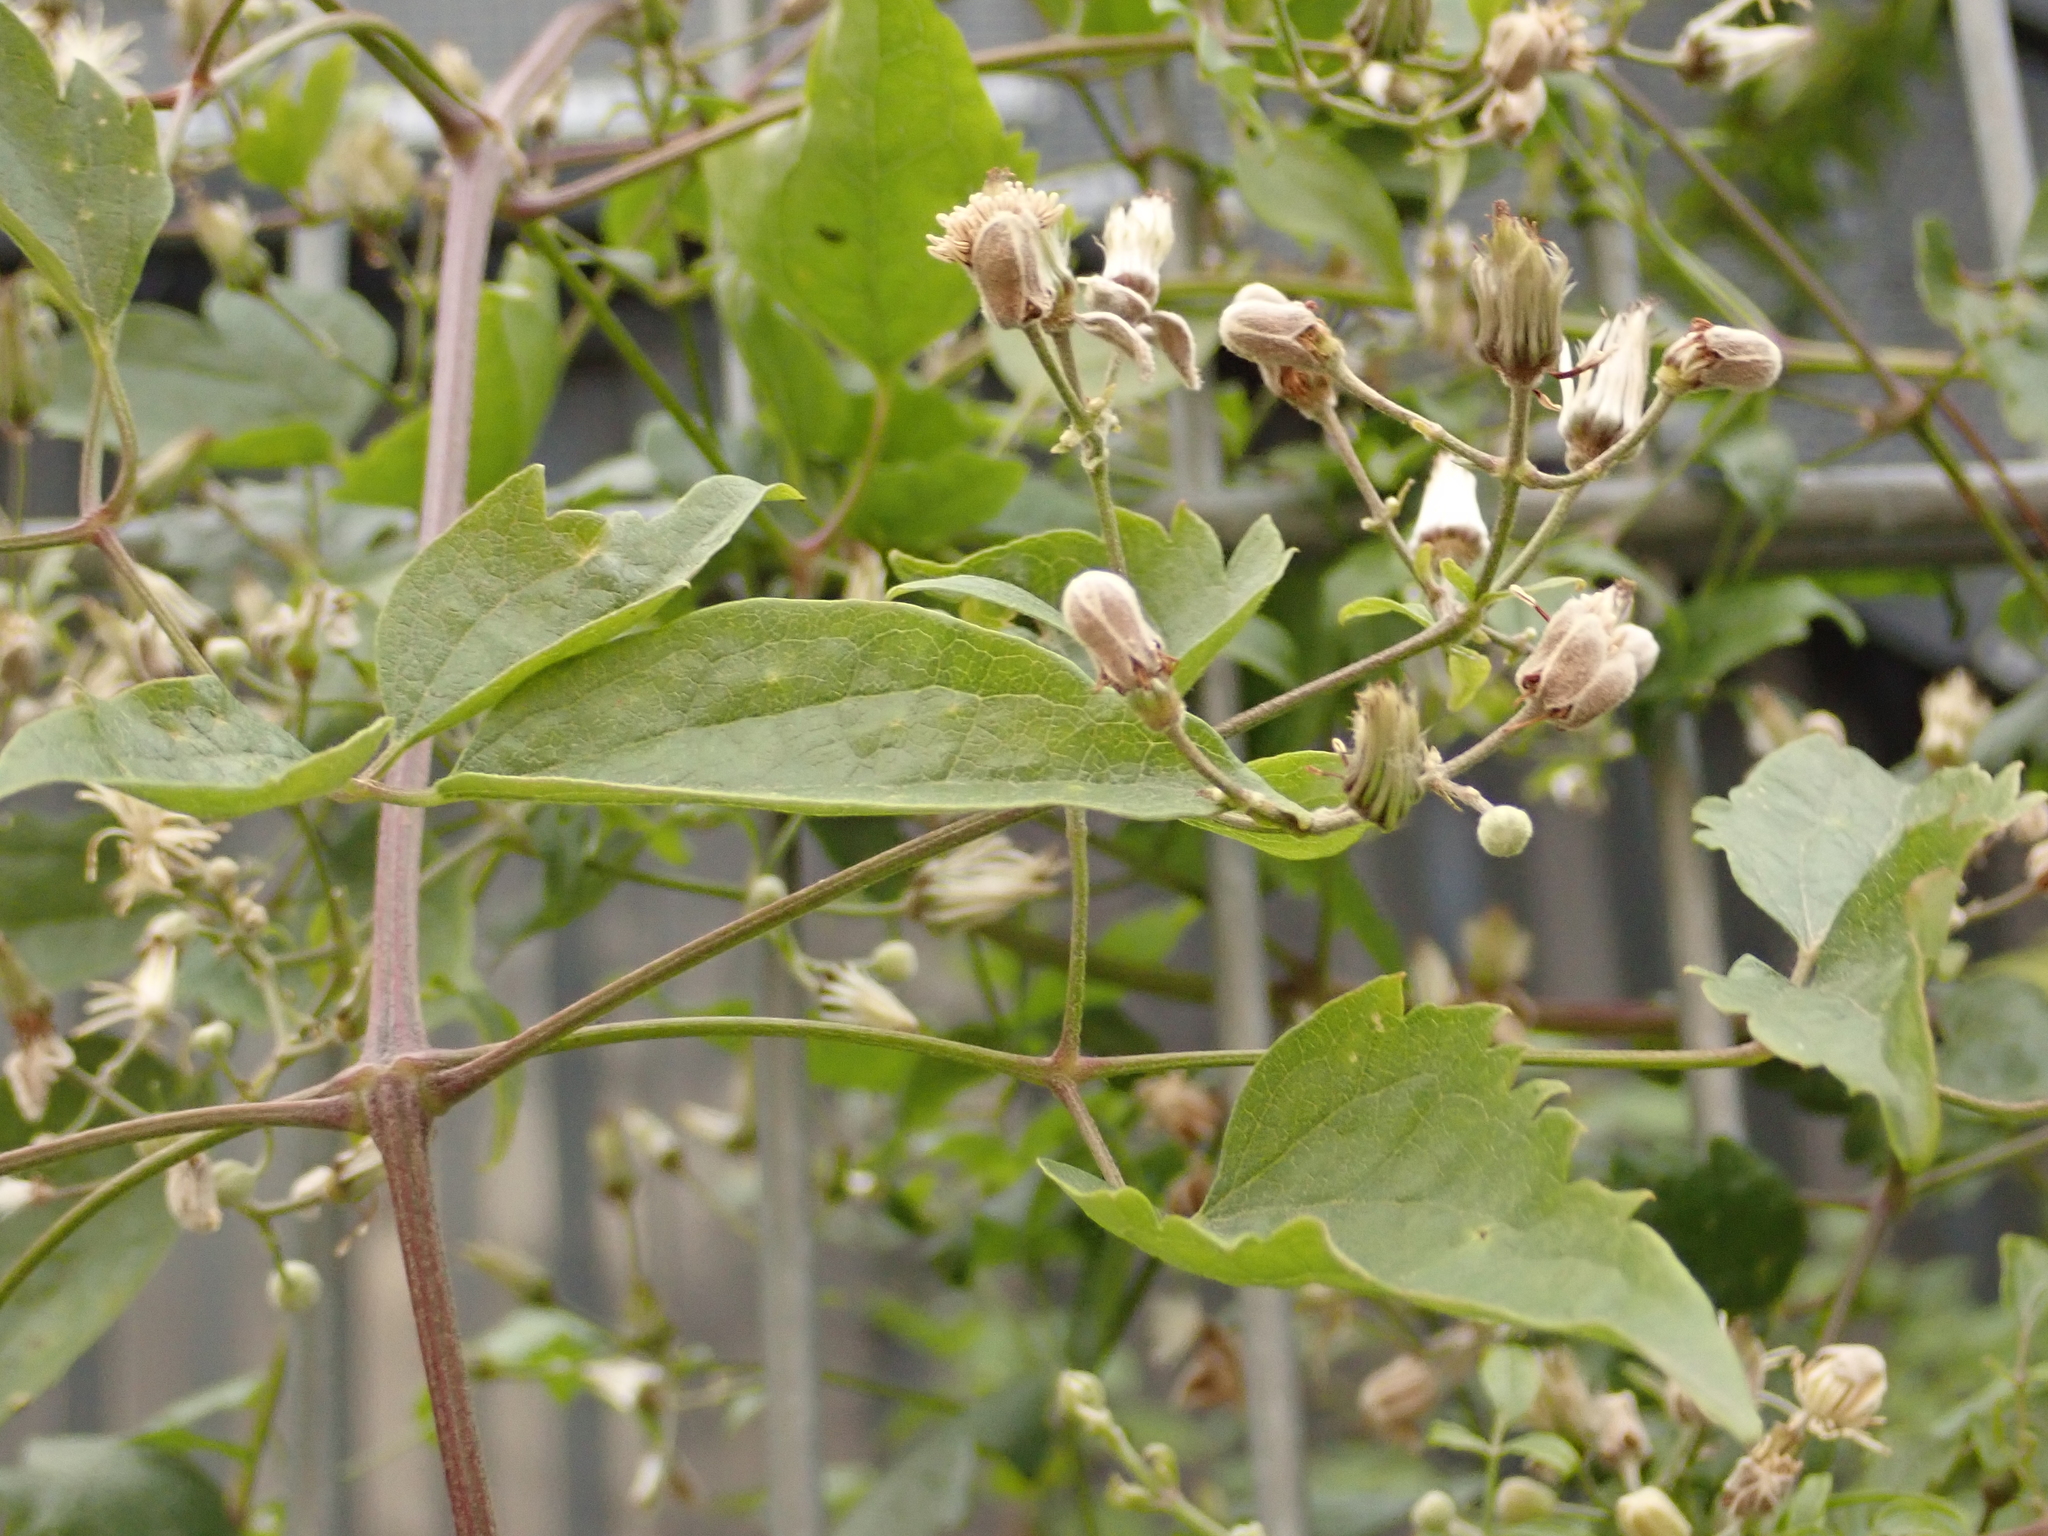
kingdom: Plantae
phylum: Tracheophyta
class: Magnoliopsida
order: Ranunculales
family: Ranunculaceae
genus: Clematis
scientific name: Clematis vitalba
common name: Evergreen clematis
